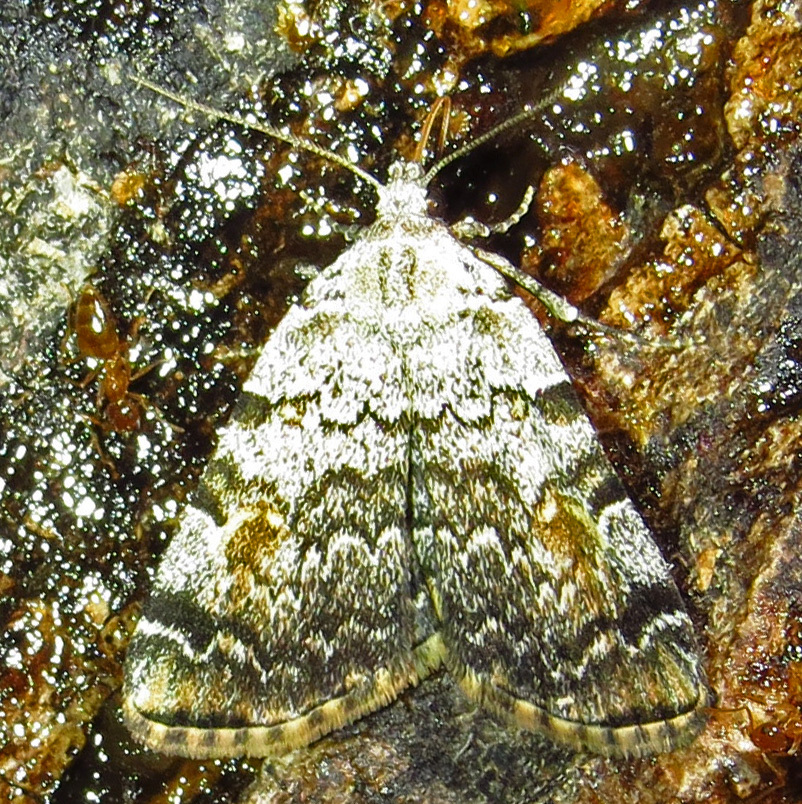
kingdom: Animalia
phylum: Arthropoda
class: Insecta
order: Lepidoptera
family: Erebidae
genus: Idia
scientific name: Idia americalis
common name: American idia moth
